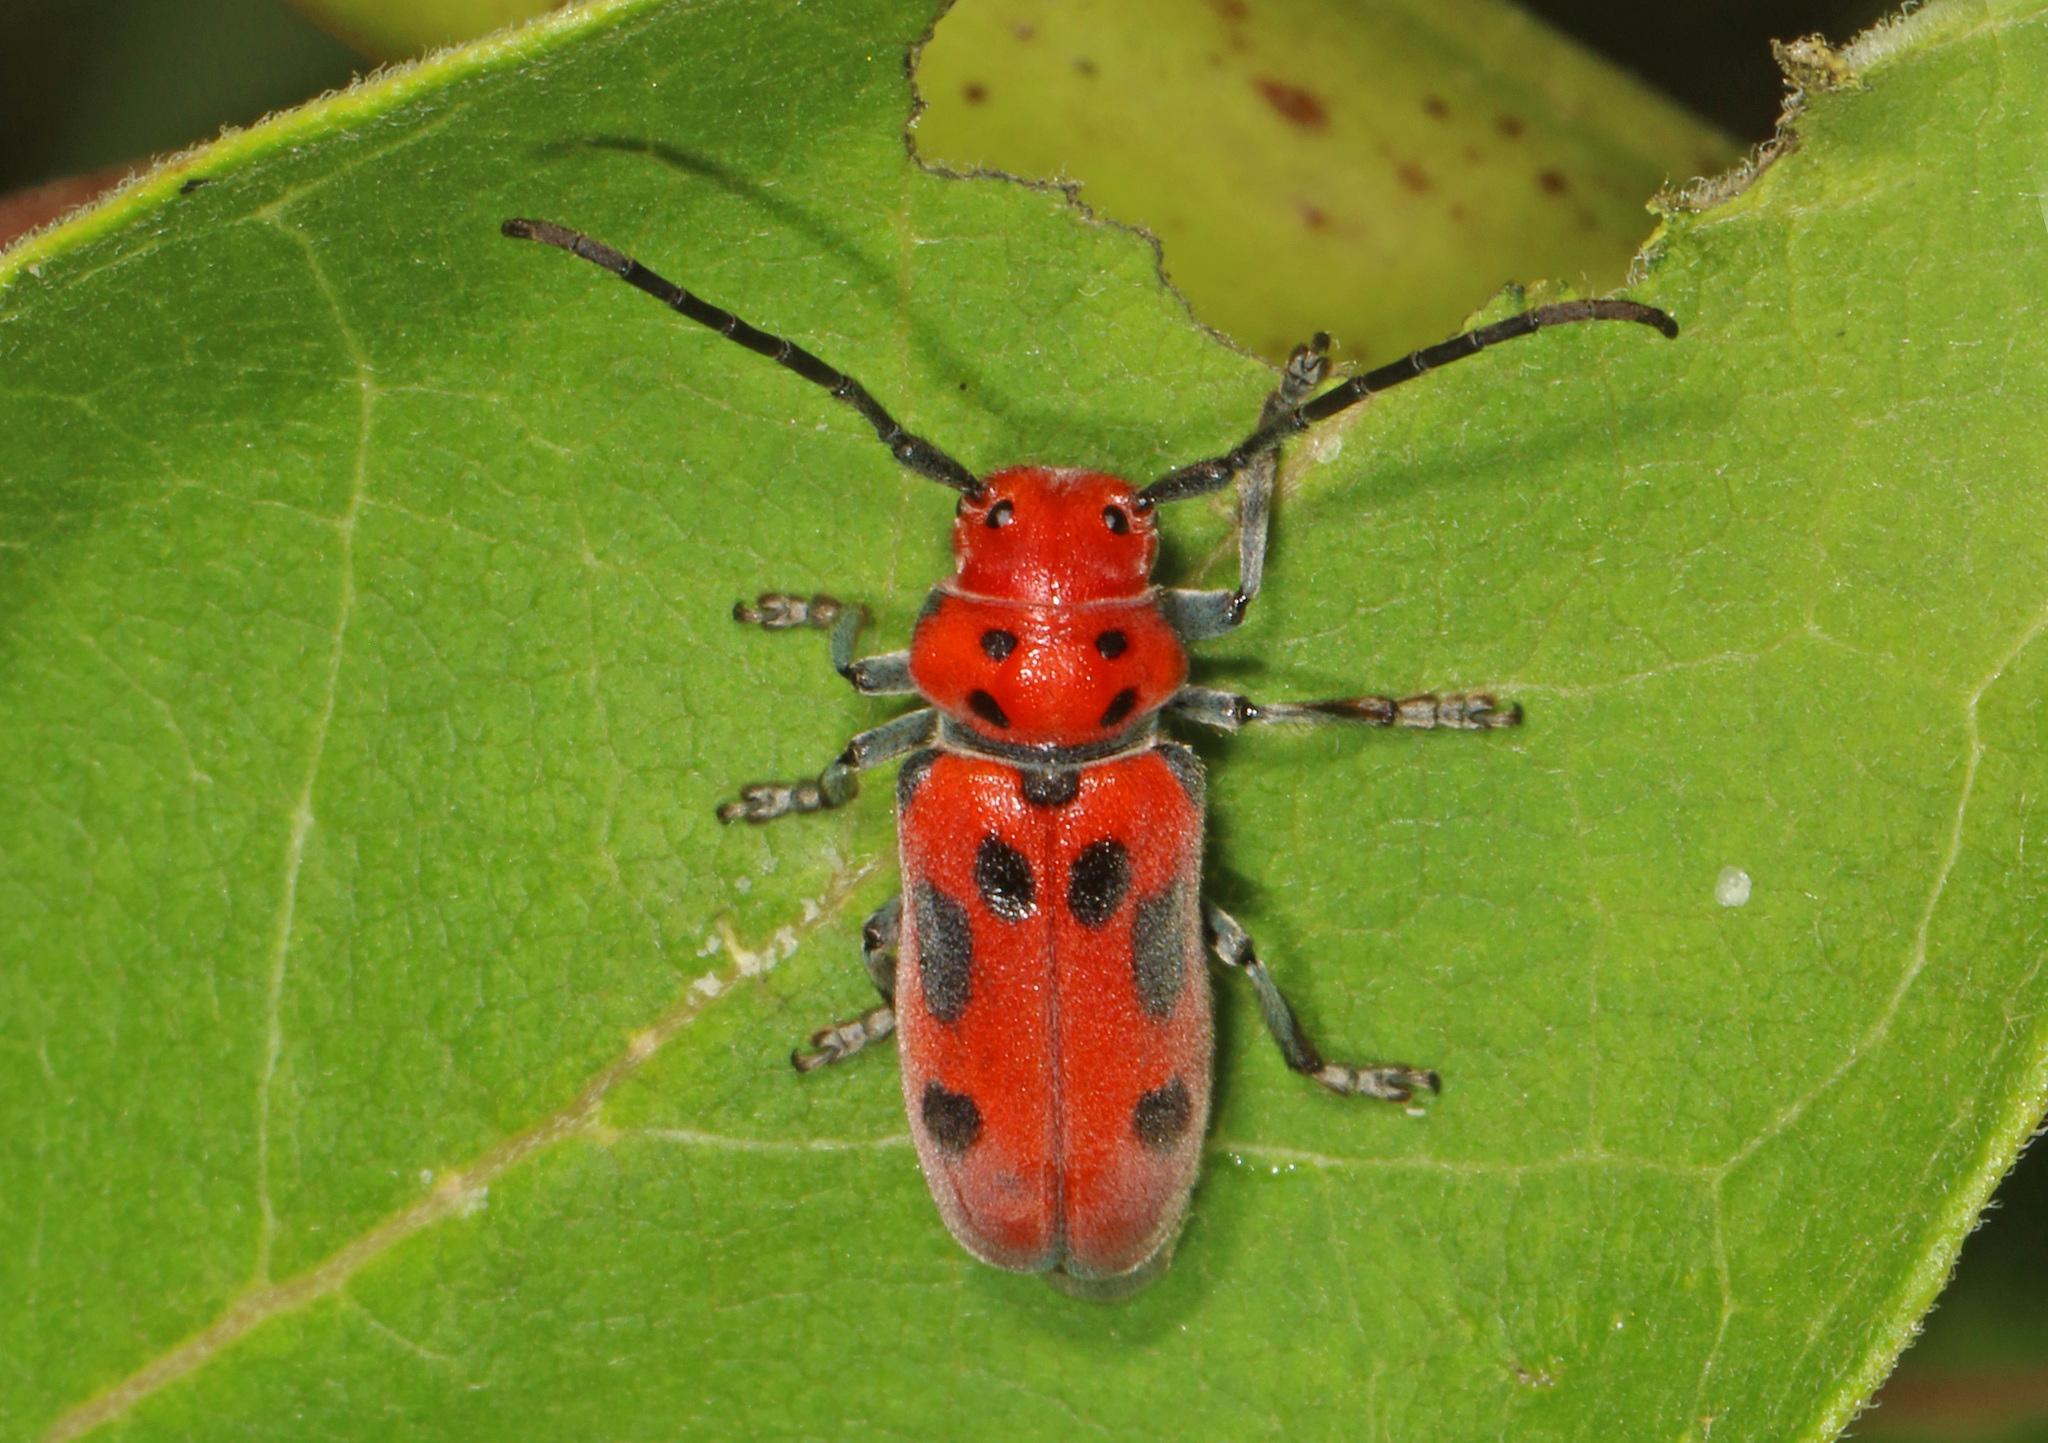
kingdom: Animalia
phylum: Arthropoda
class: Insecta
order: Coleoptera
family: Cerambycidae
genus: Tetraopes
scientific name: Tetraopes tetrophthalmus
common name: Red milkweed beetle
